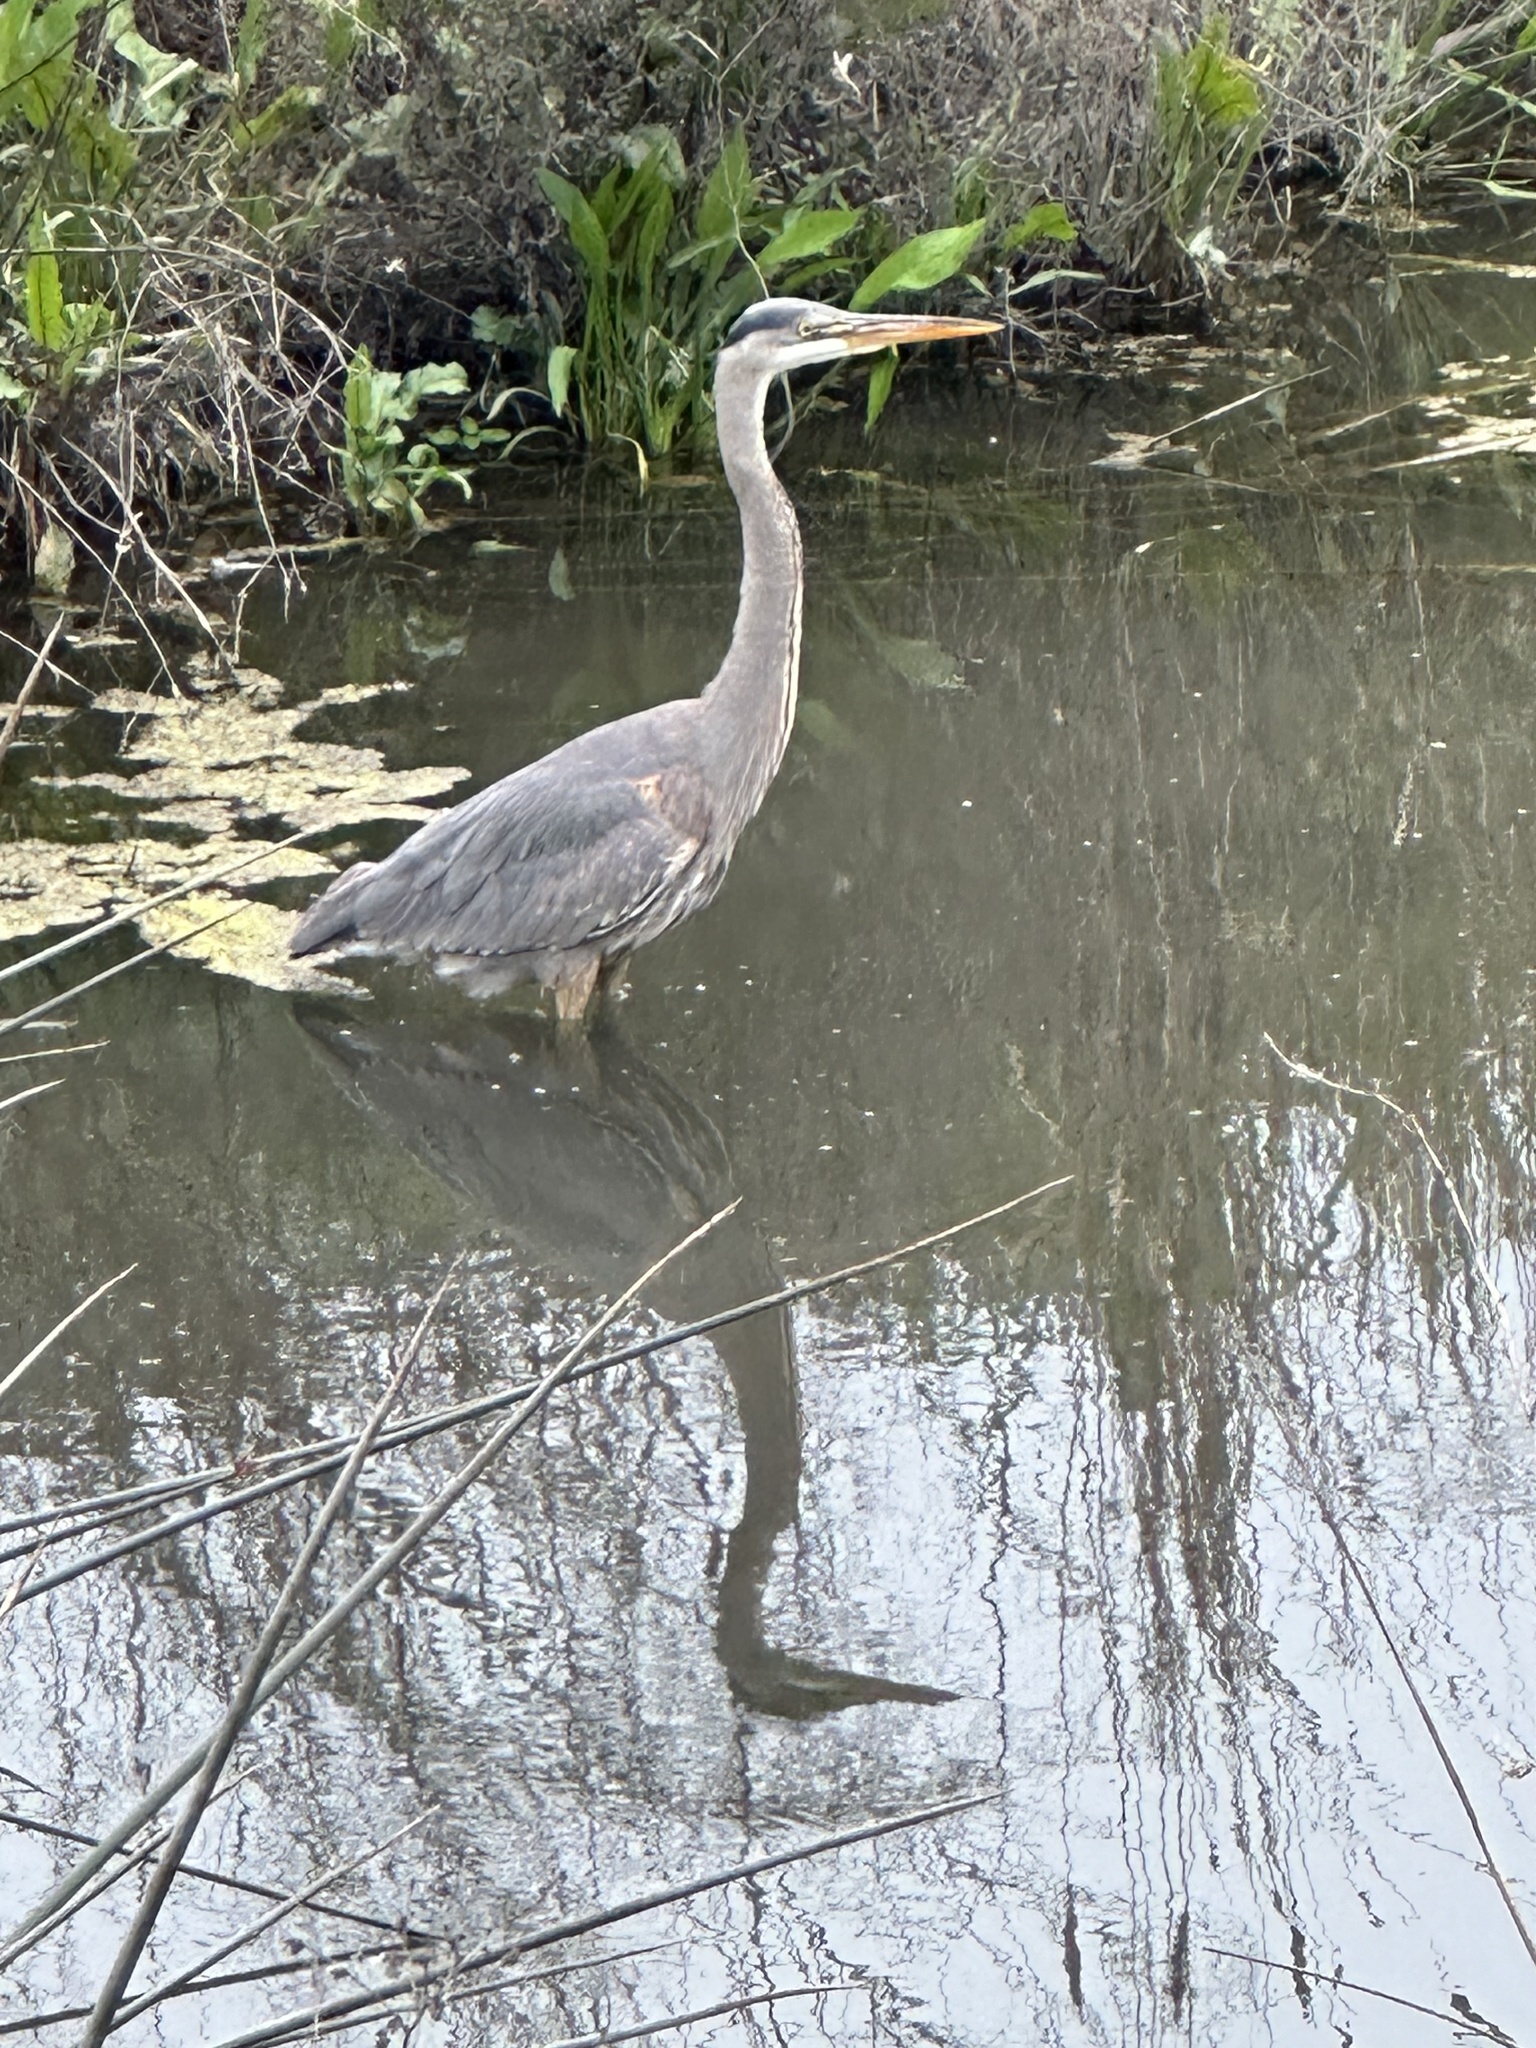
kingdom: Animalia
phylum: Chordata
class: Aves
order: Pelecaniformes
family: Ardeidae
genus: Ardea
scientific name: Ardea herodias
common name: Great blue heron
